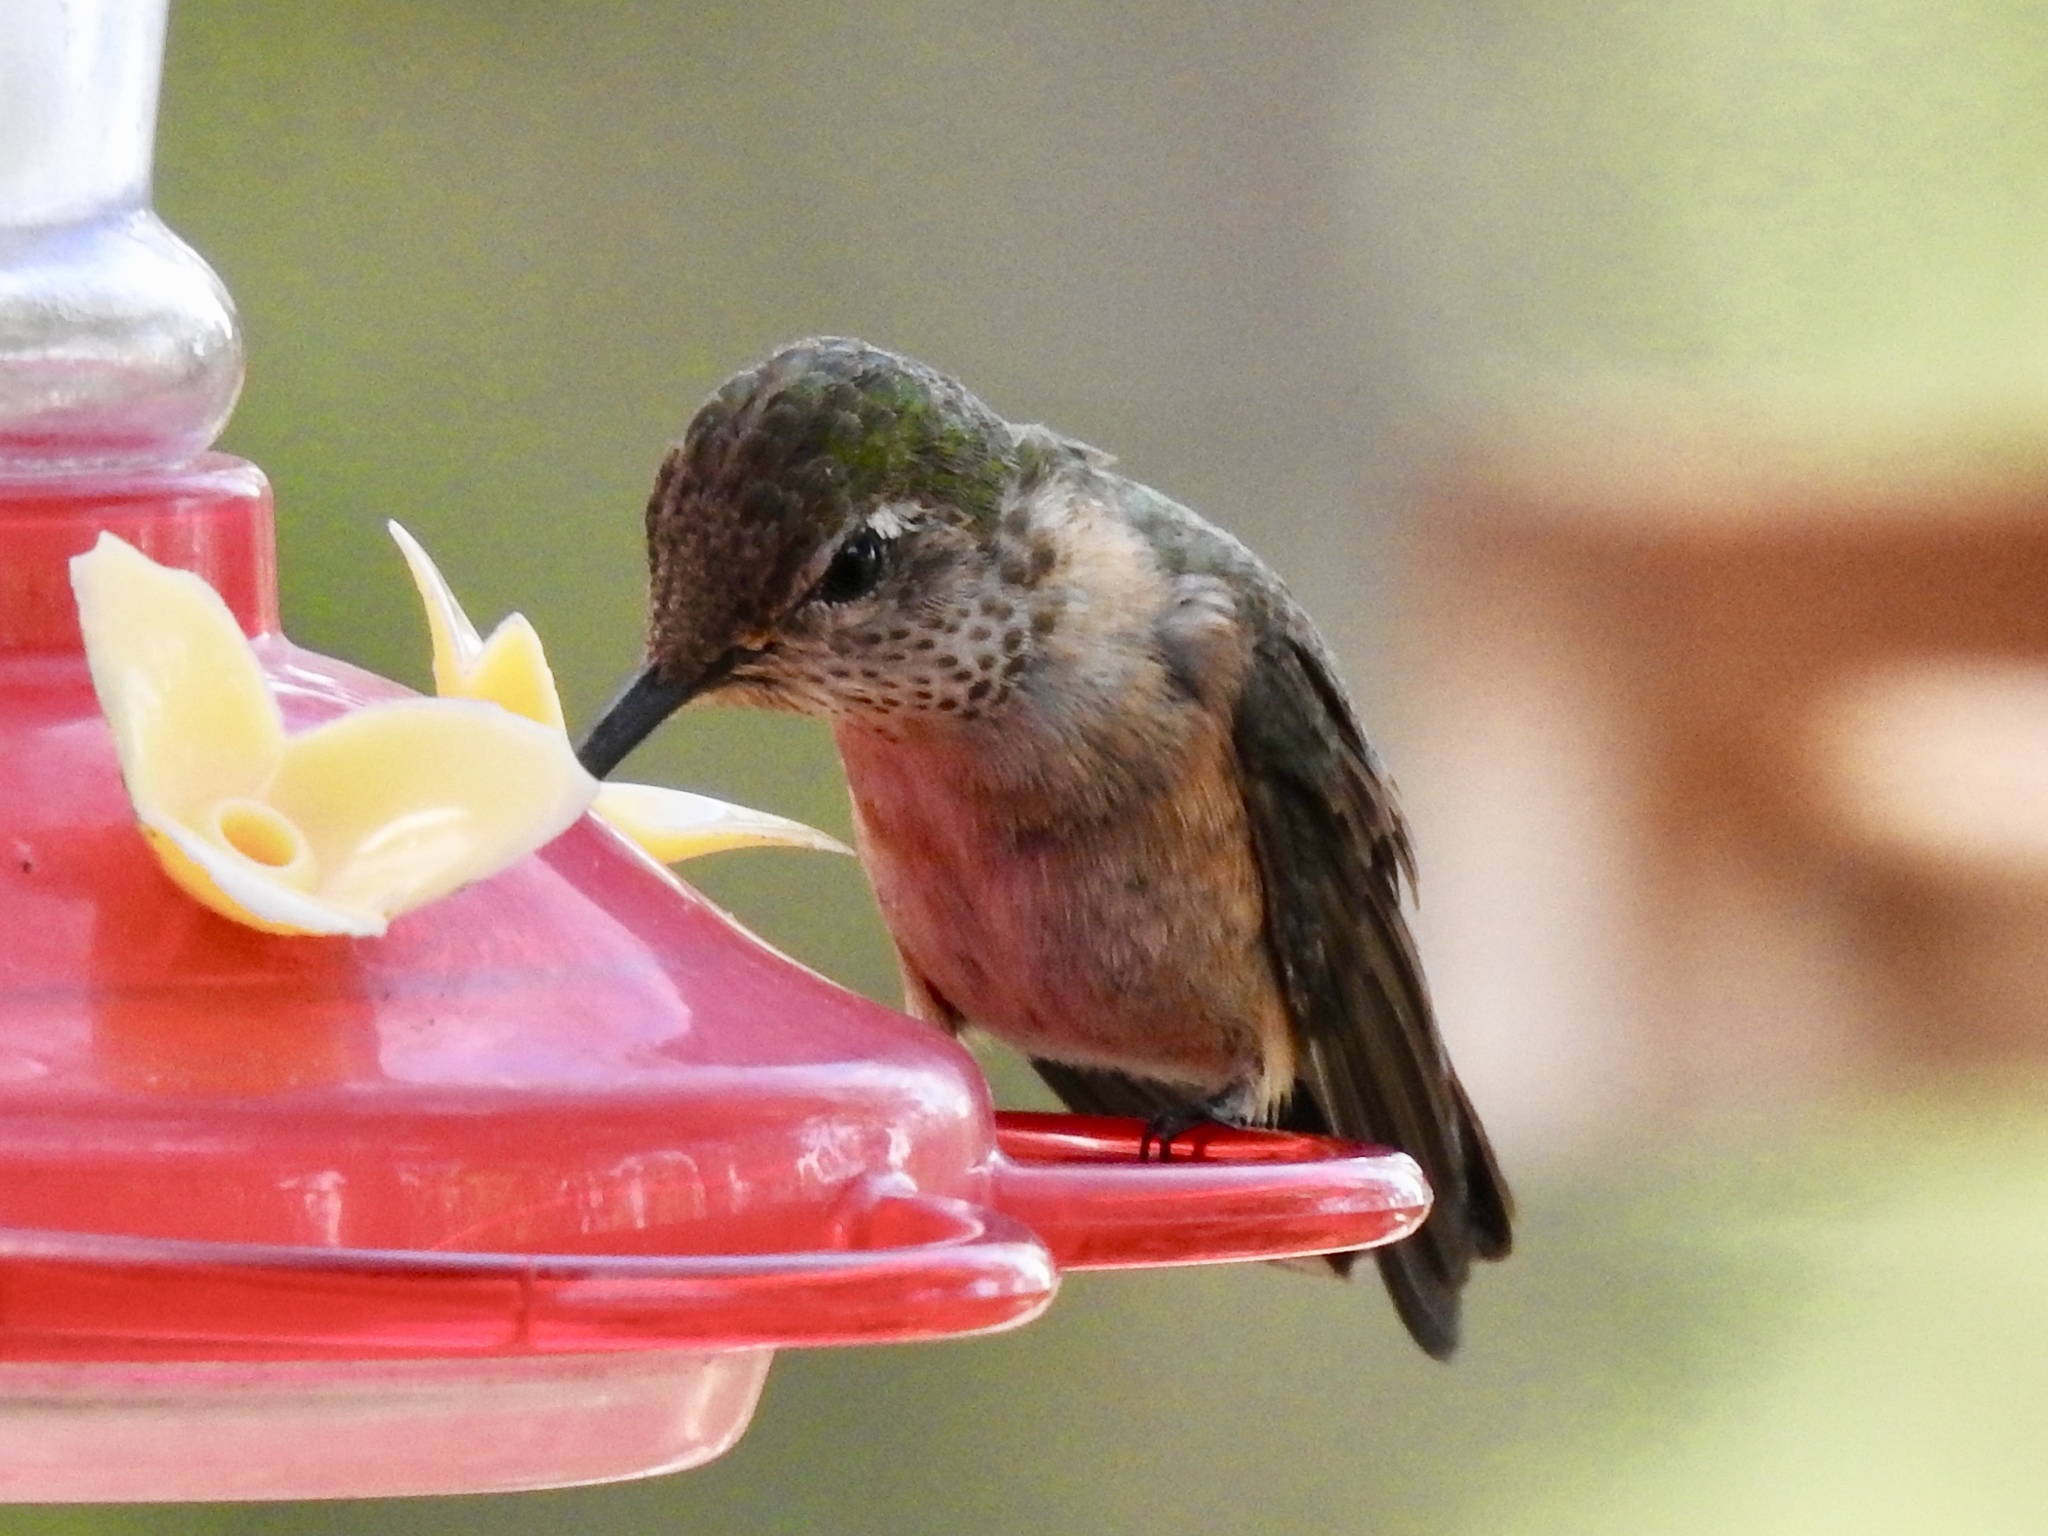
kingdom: Animalia
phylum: Chordata
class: Aves
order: Apodiformes
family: Trochilidae
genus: Selasphorus
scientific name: Selasphorus platycercus
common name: Broad-tailed hummingbird
